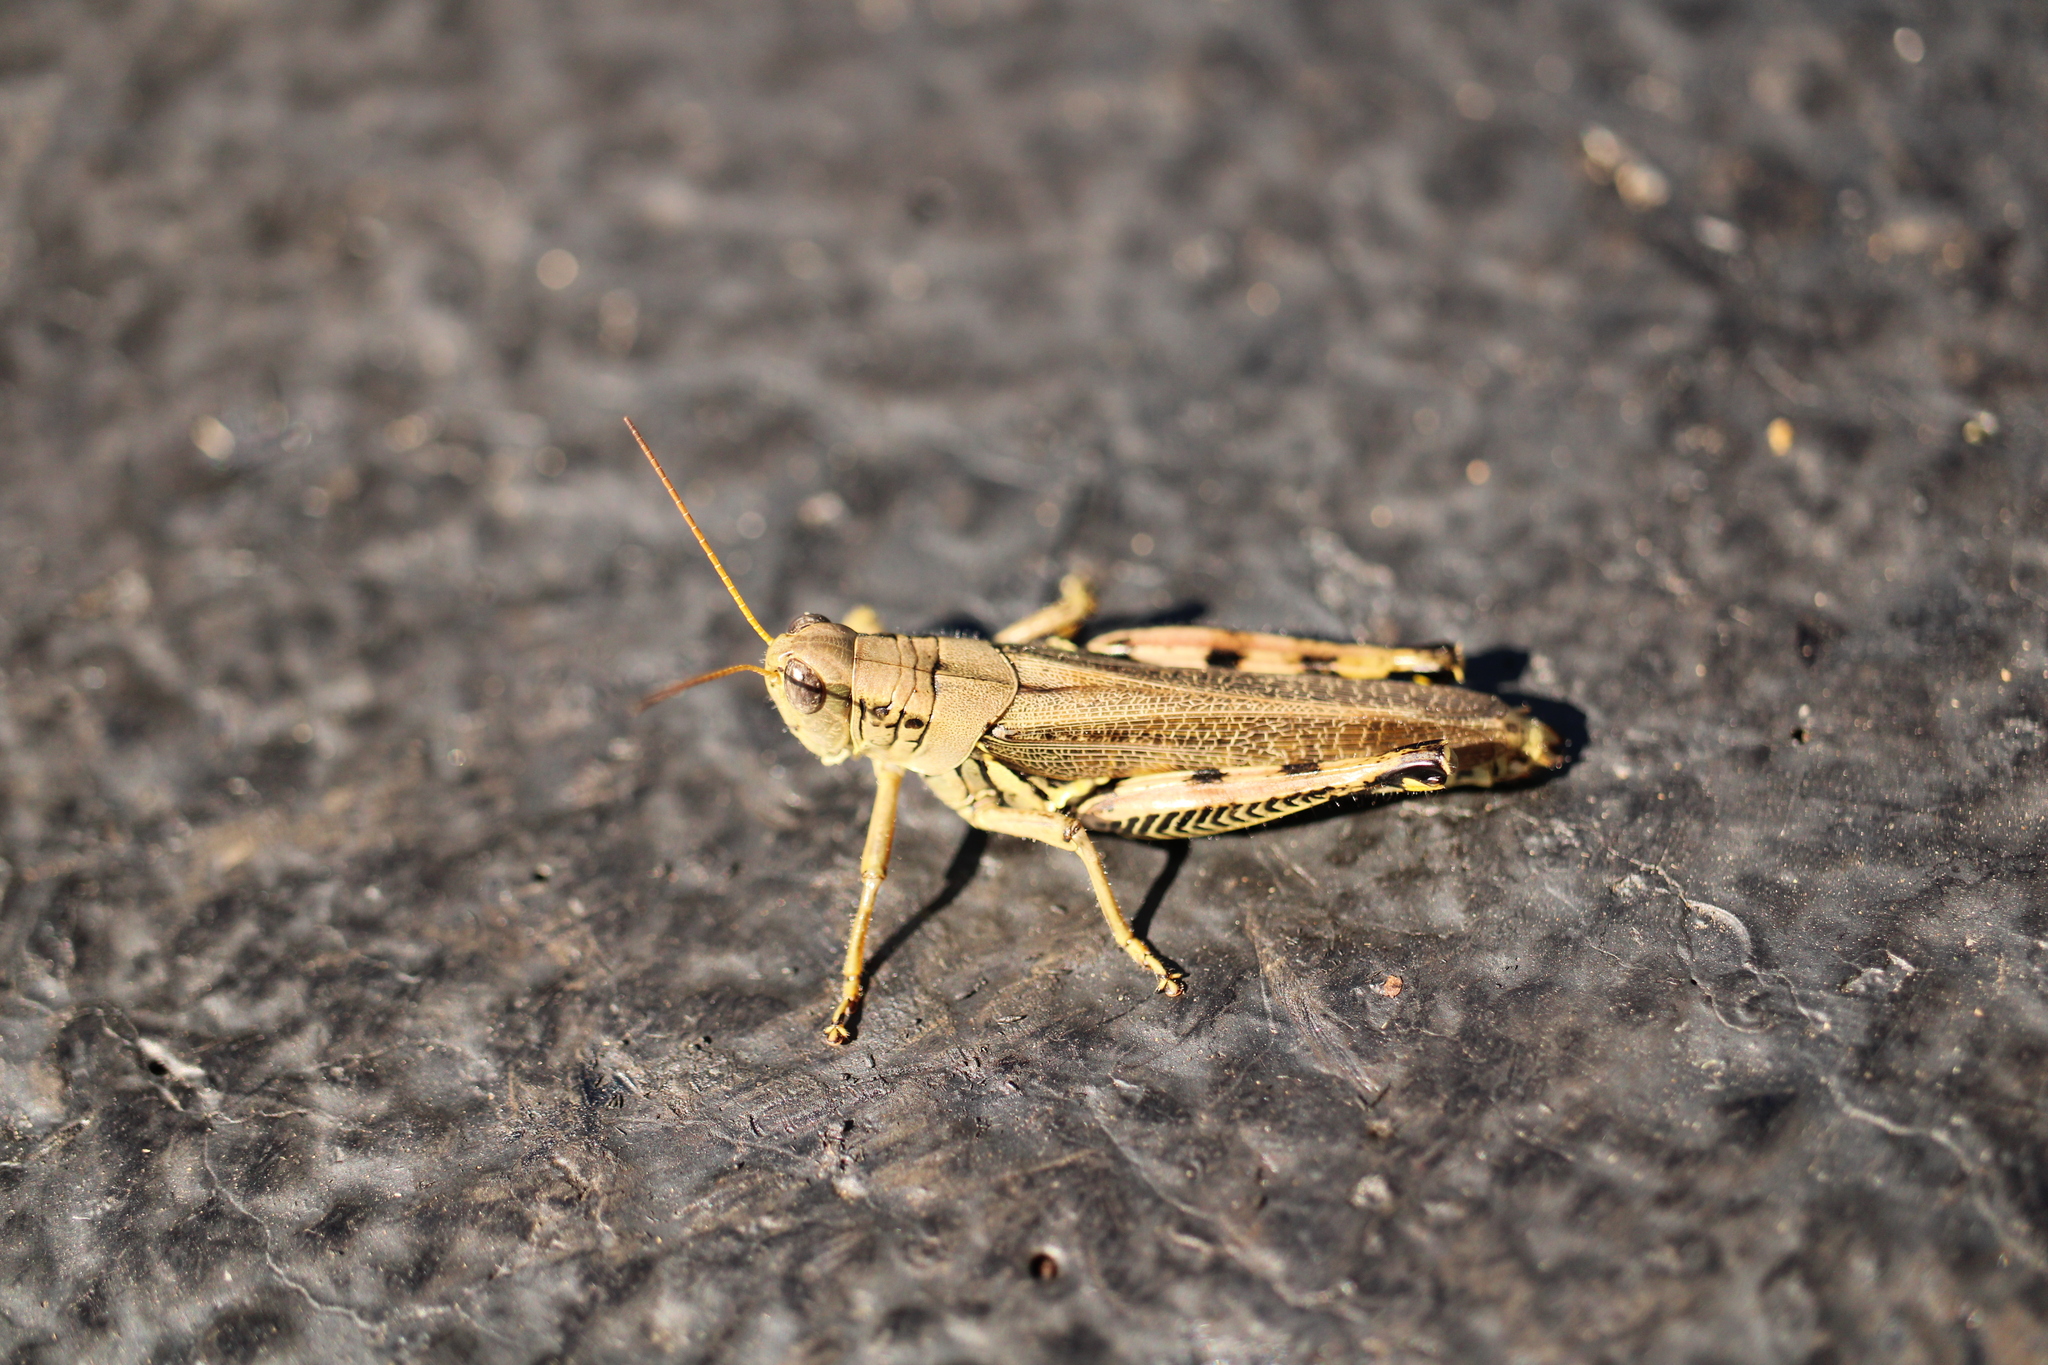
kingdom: Animalia
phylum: Arthropoda
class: Insecta
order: Orthoptera
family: Acrididae
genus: Melanoplus
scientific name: Melanoplus differentialis
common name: Differential grasshopper
